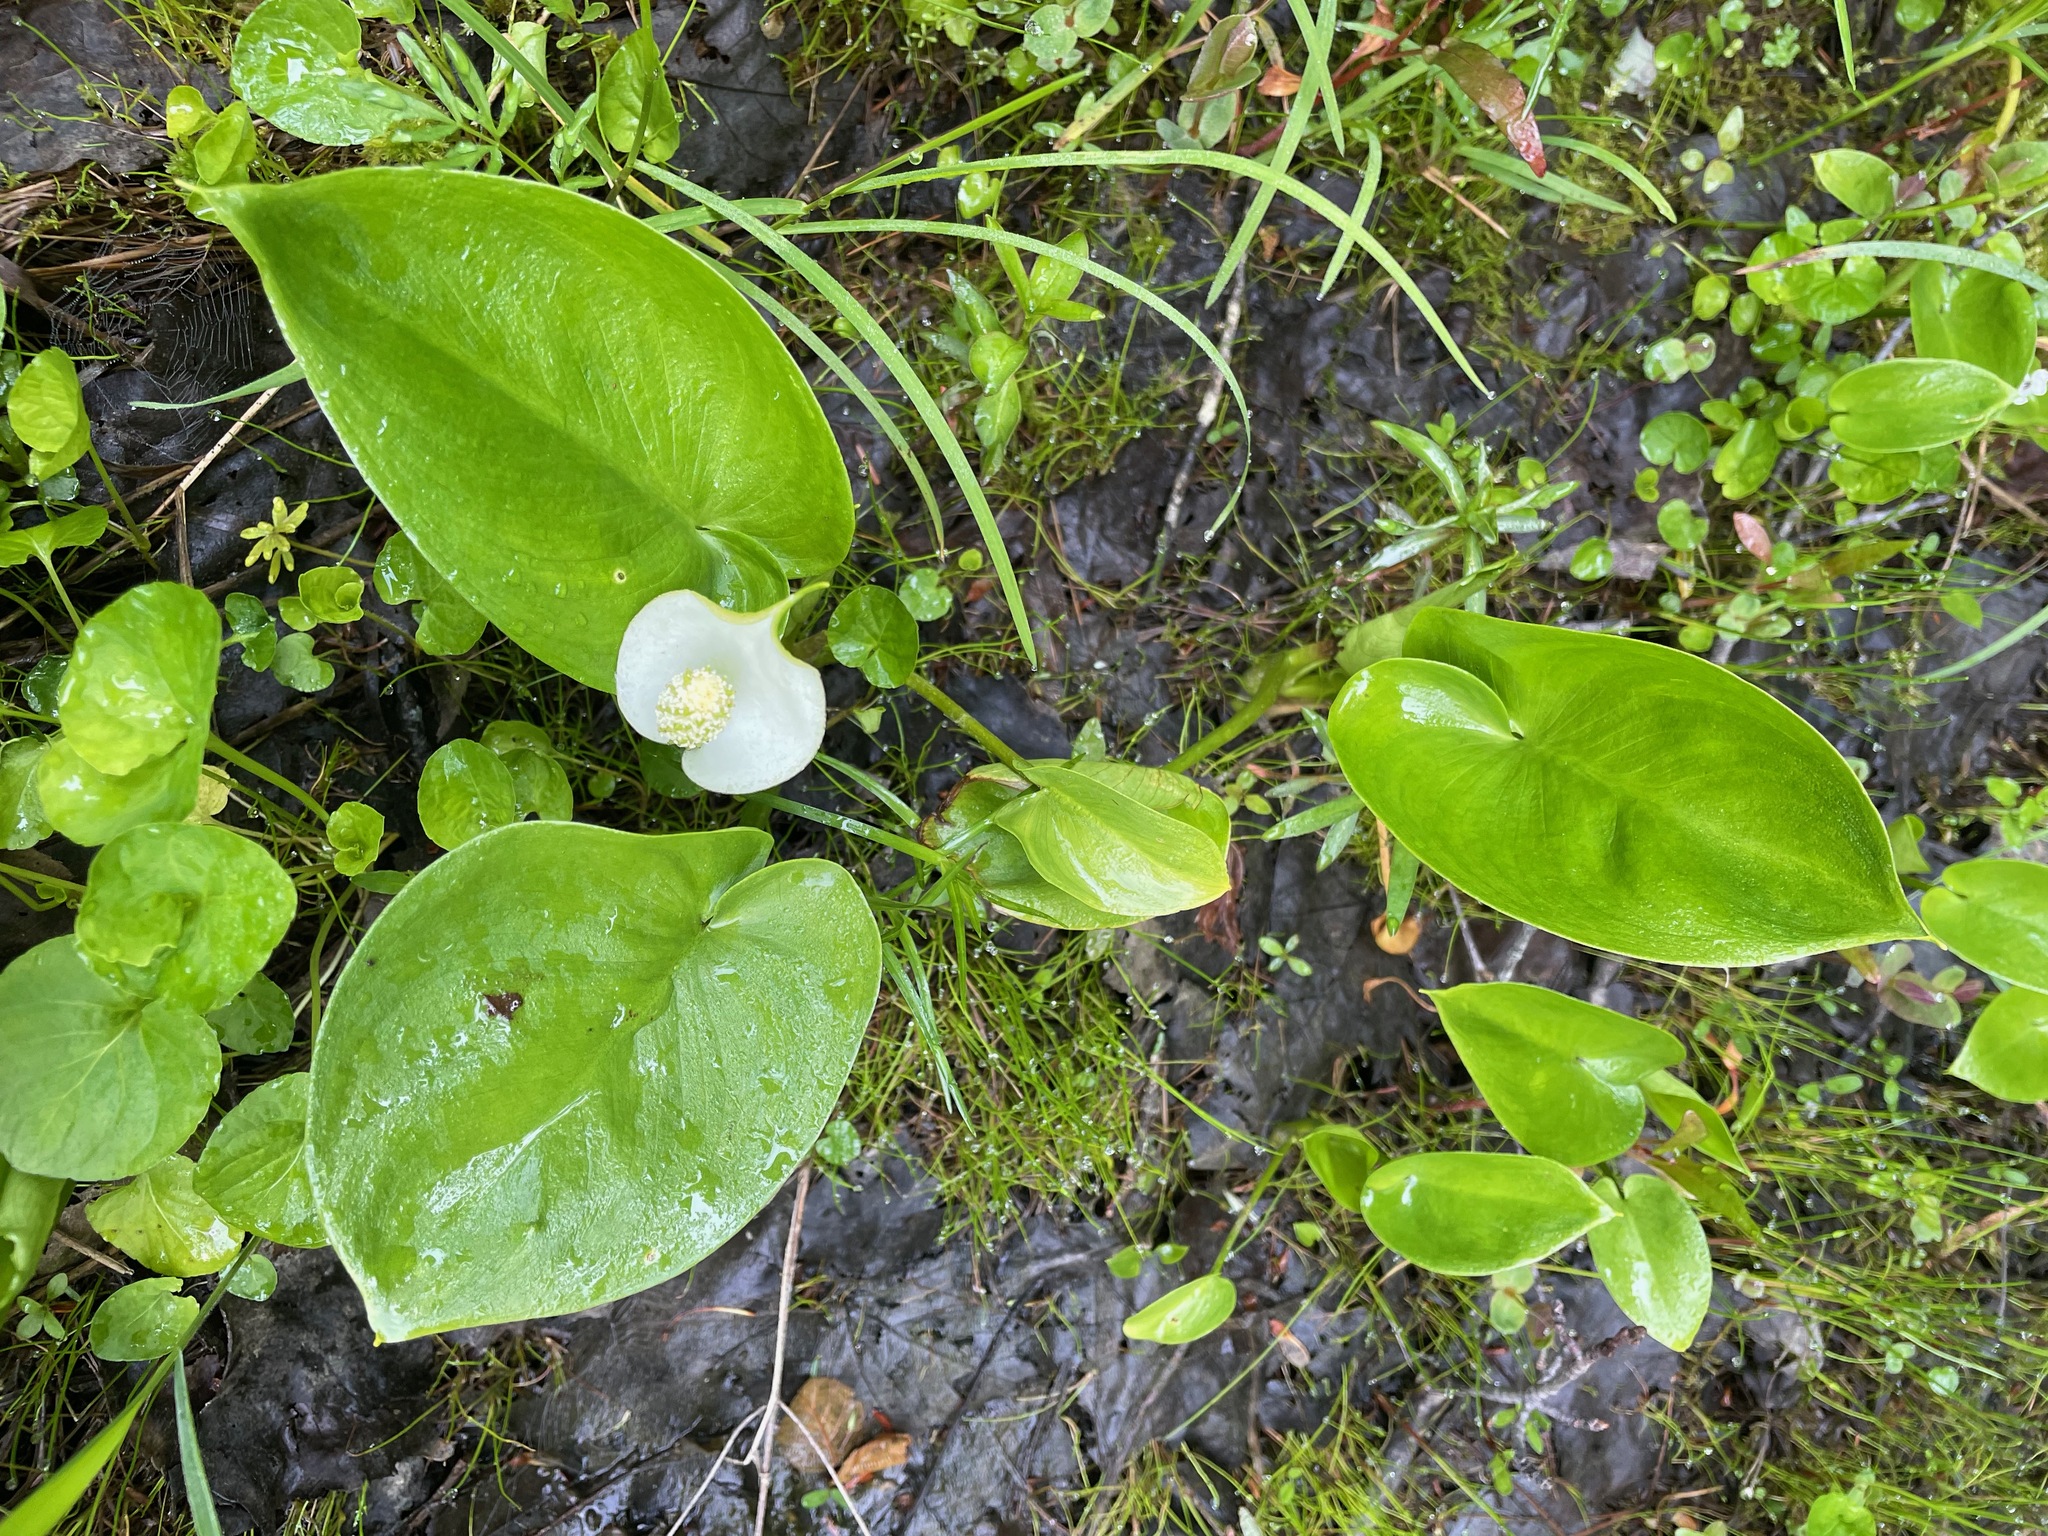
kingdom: Plantae
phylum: Tracheophyta
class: Liliopsida
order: Alismatales
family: Araceae
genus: Calla
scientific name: Calla palustris
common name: Bog arum
